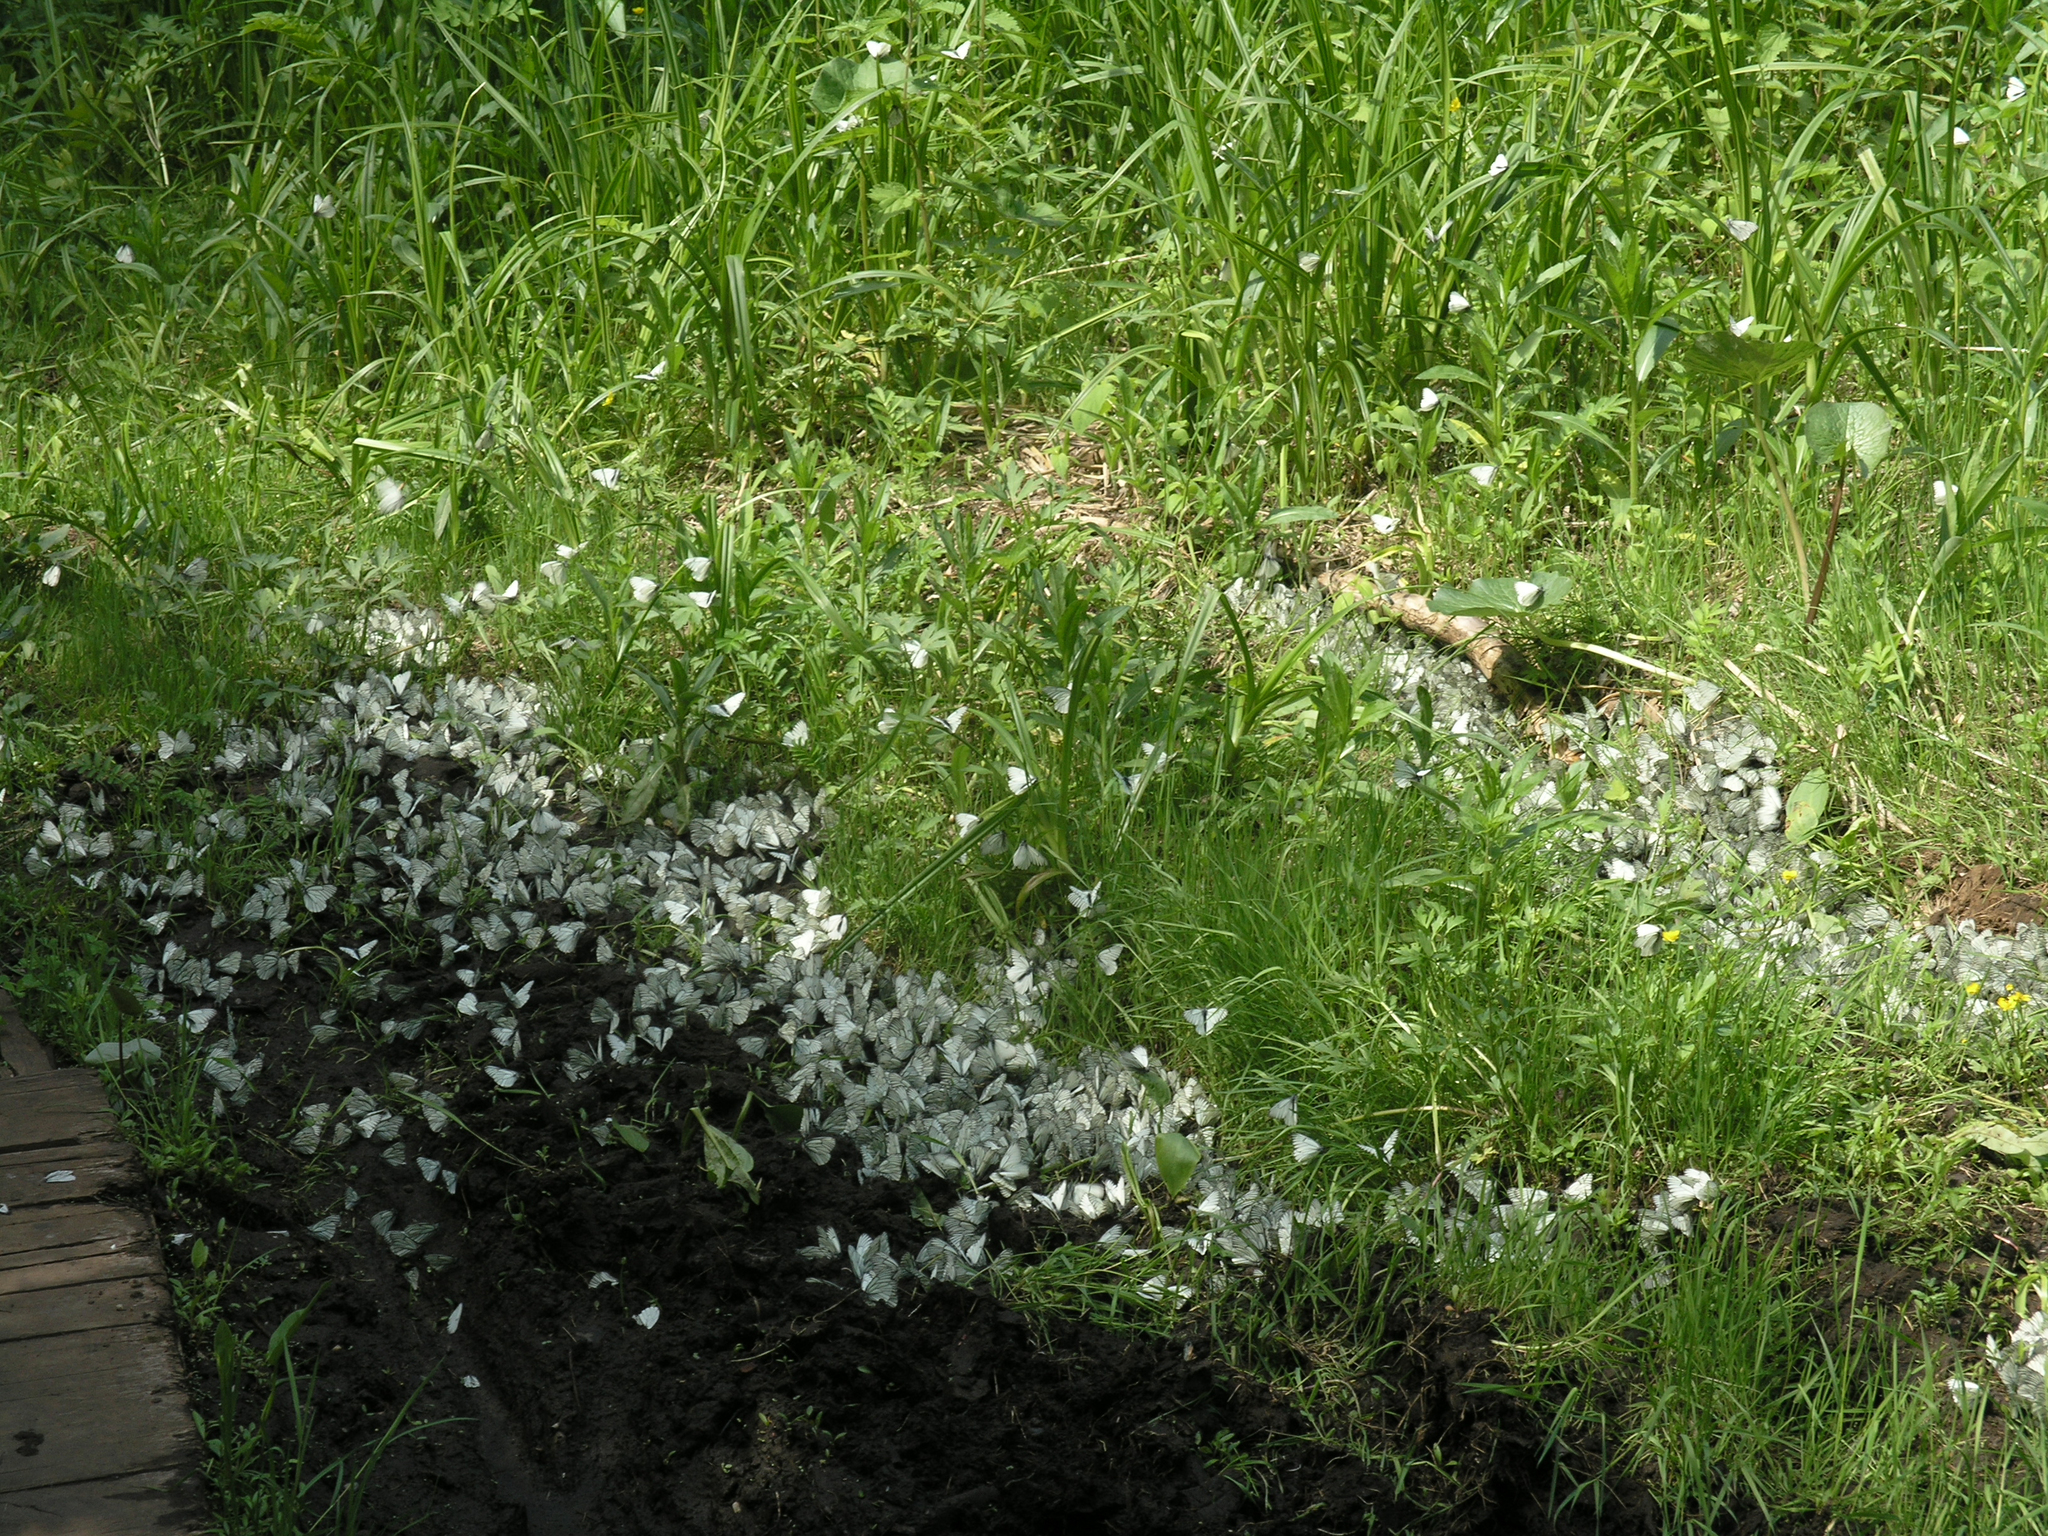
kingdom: Animalia
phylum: Arthropoda
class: Insecta
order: Lepidoptera
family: Pieridae
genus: Aporia
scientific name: Aporia crataegi
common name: Black-veined white
